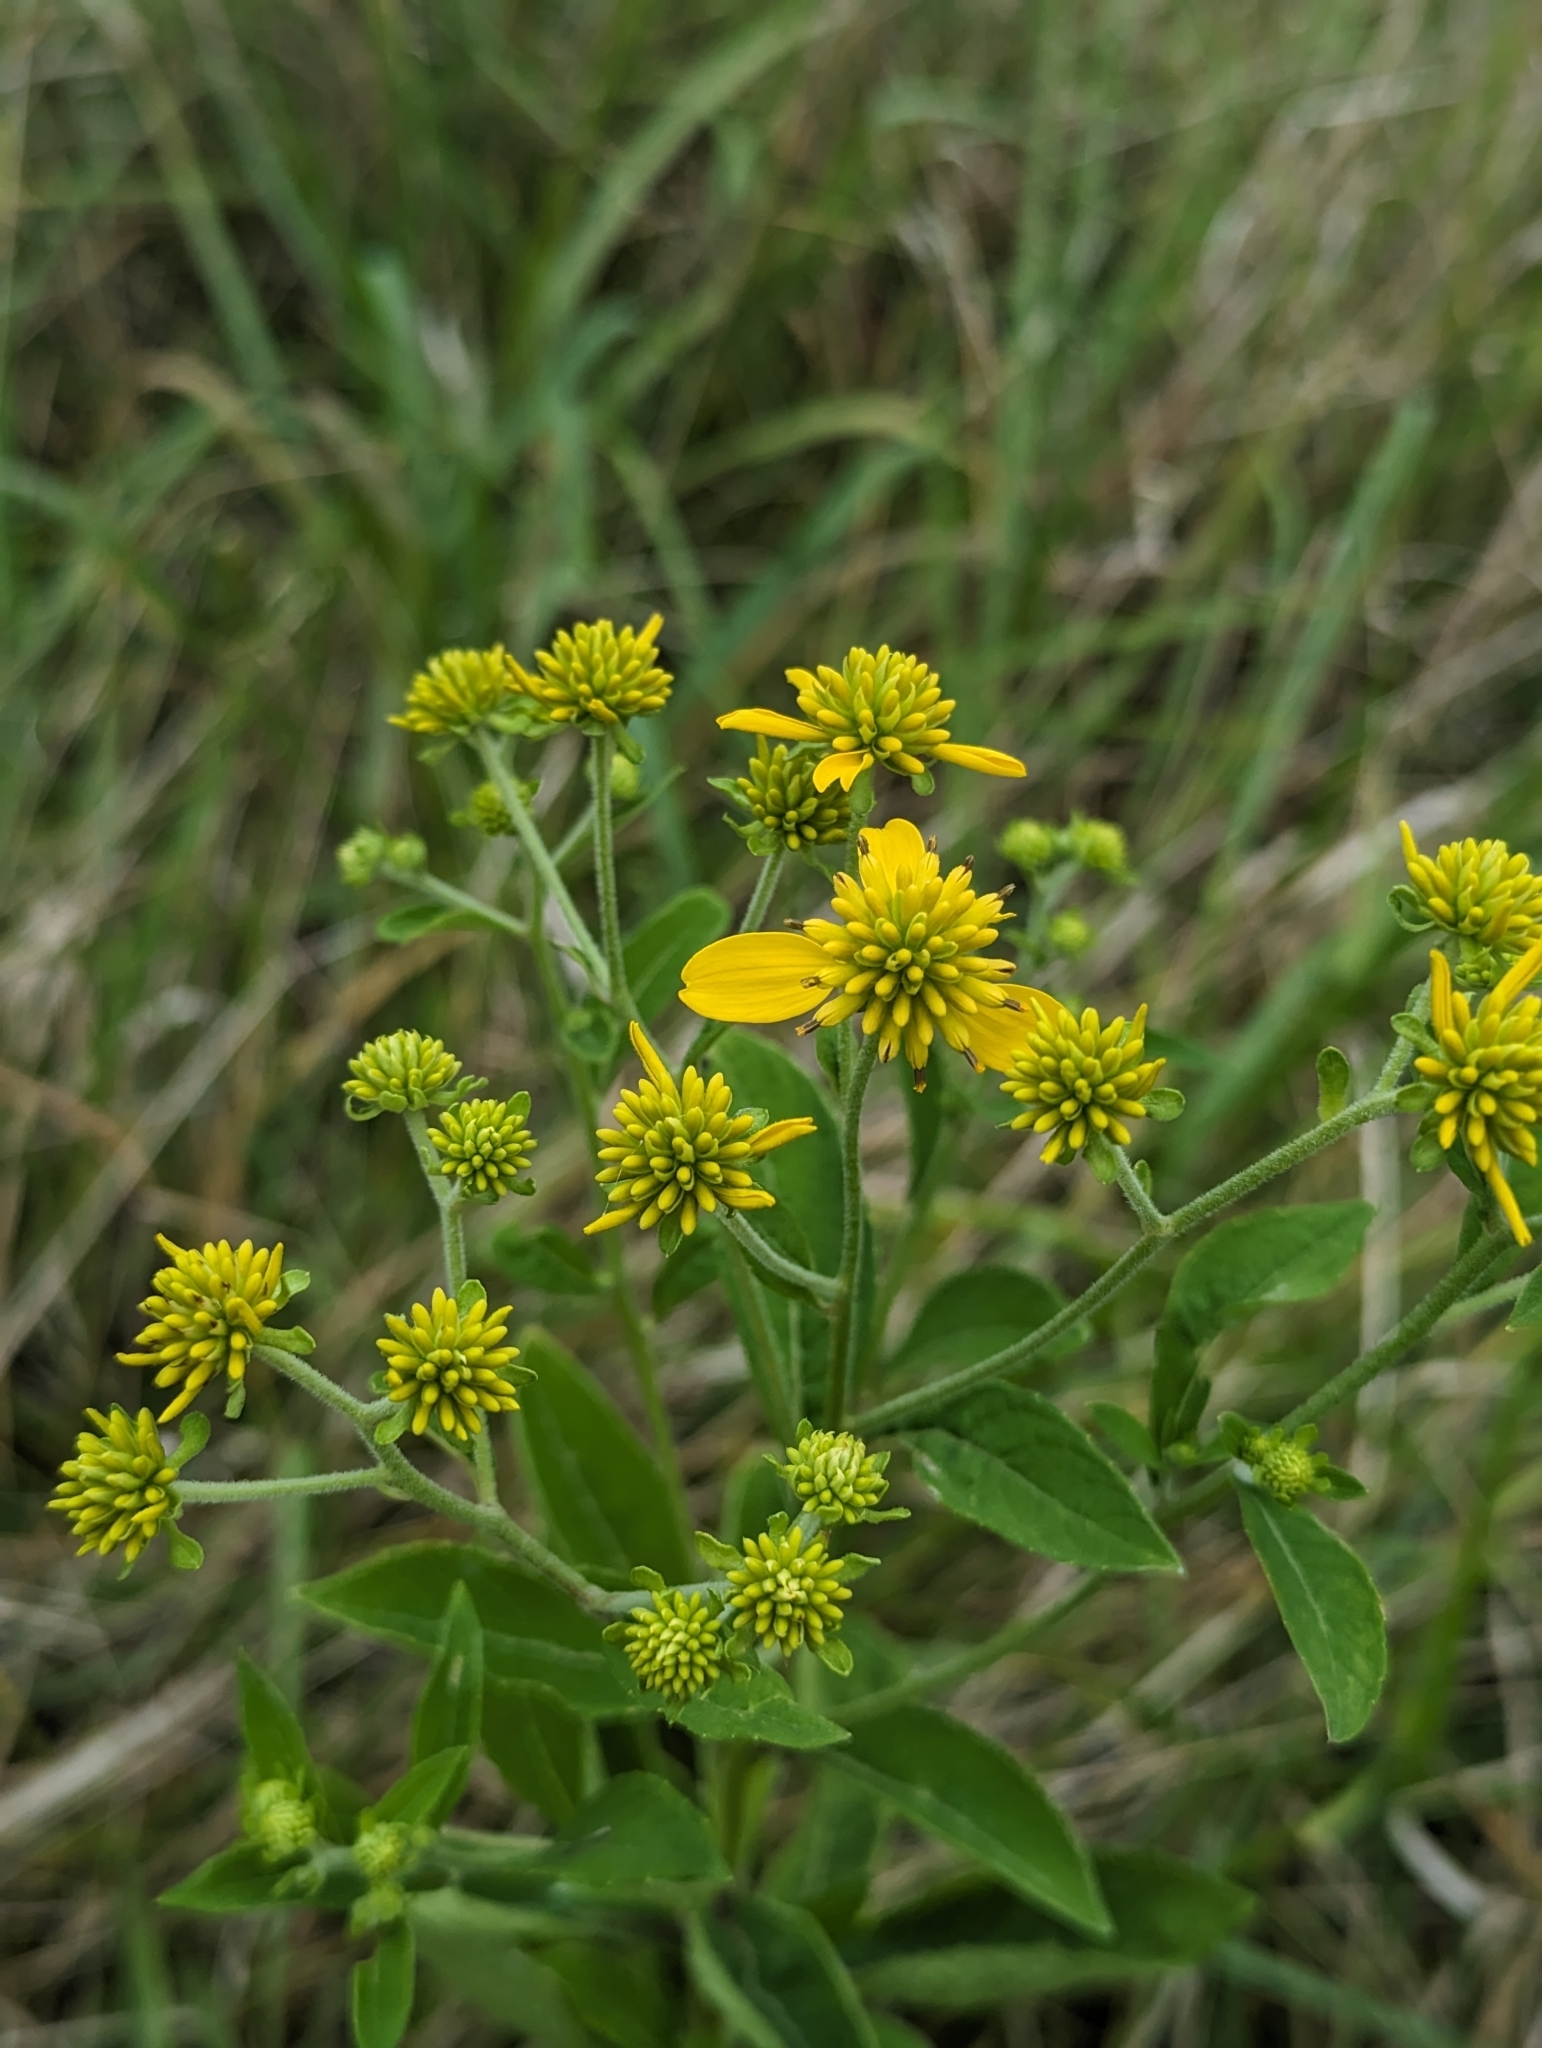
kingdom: Plantae
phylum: Tracheophyta
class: Magnoliopsida
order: Asterales
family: Asteraceae
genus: Verbesina
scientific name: Verbesina alternifolia
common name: Wingstem
